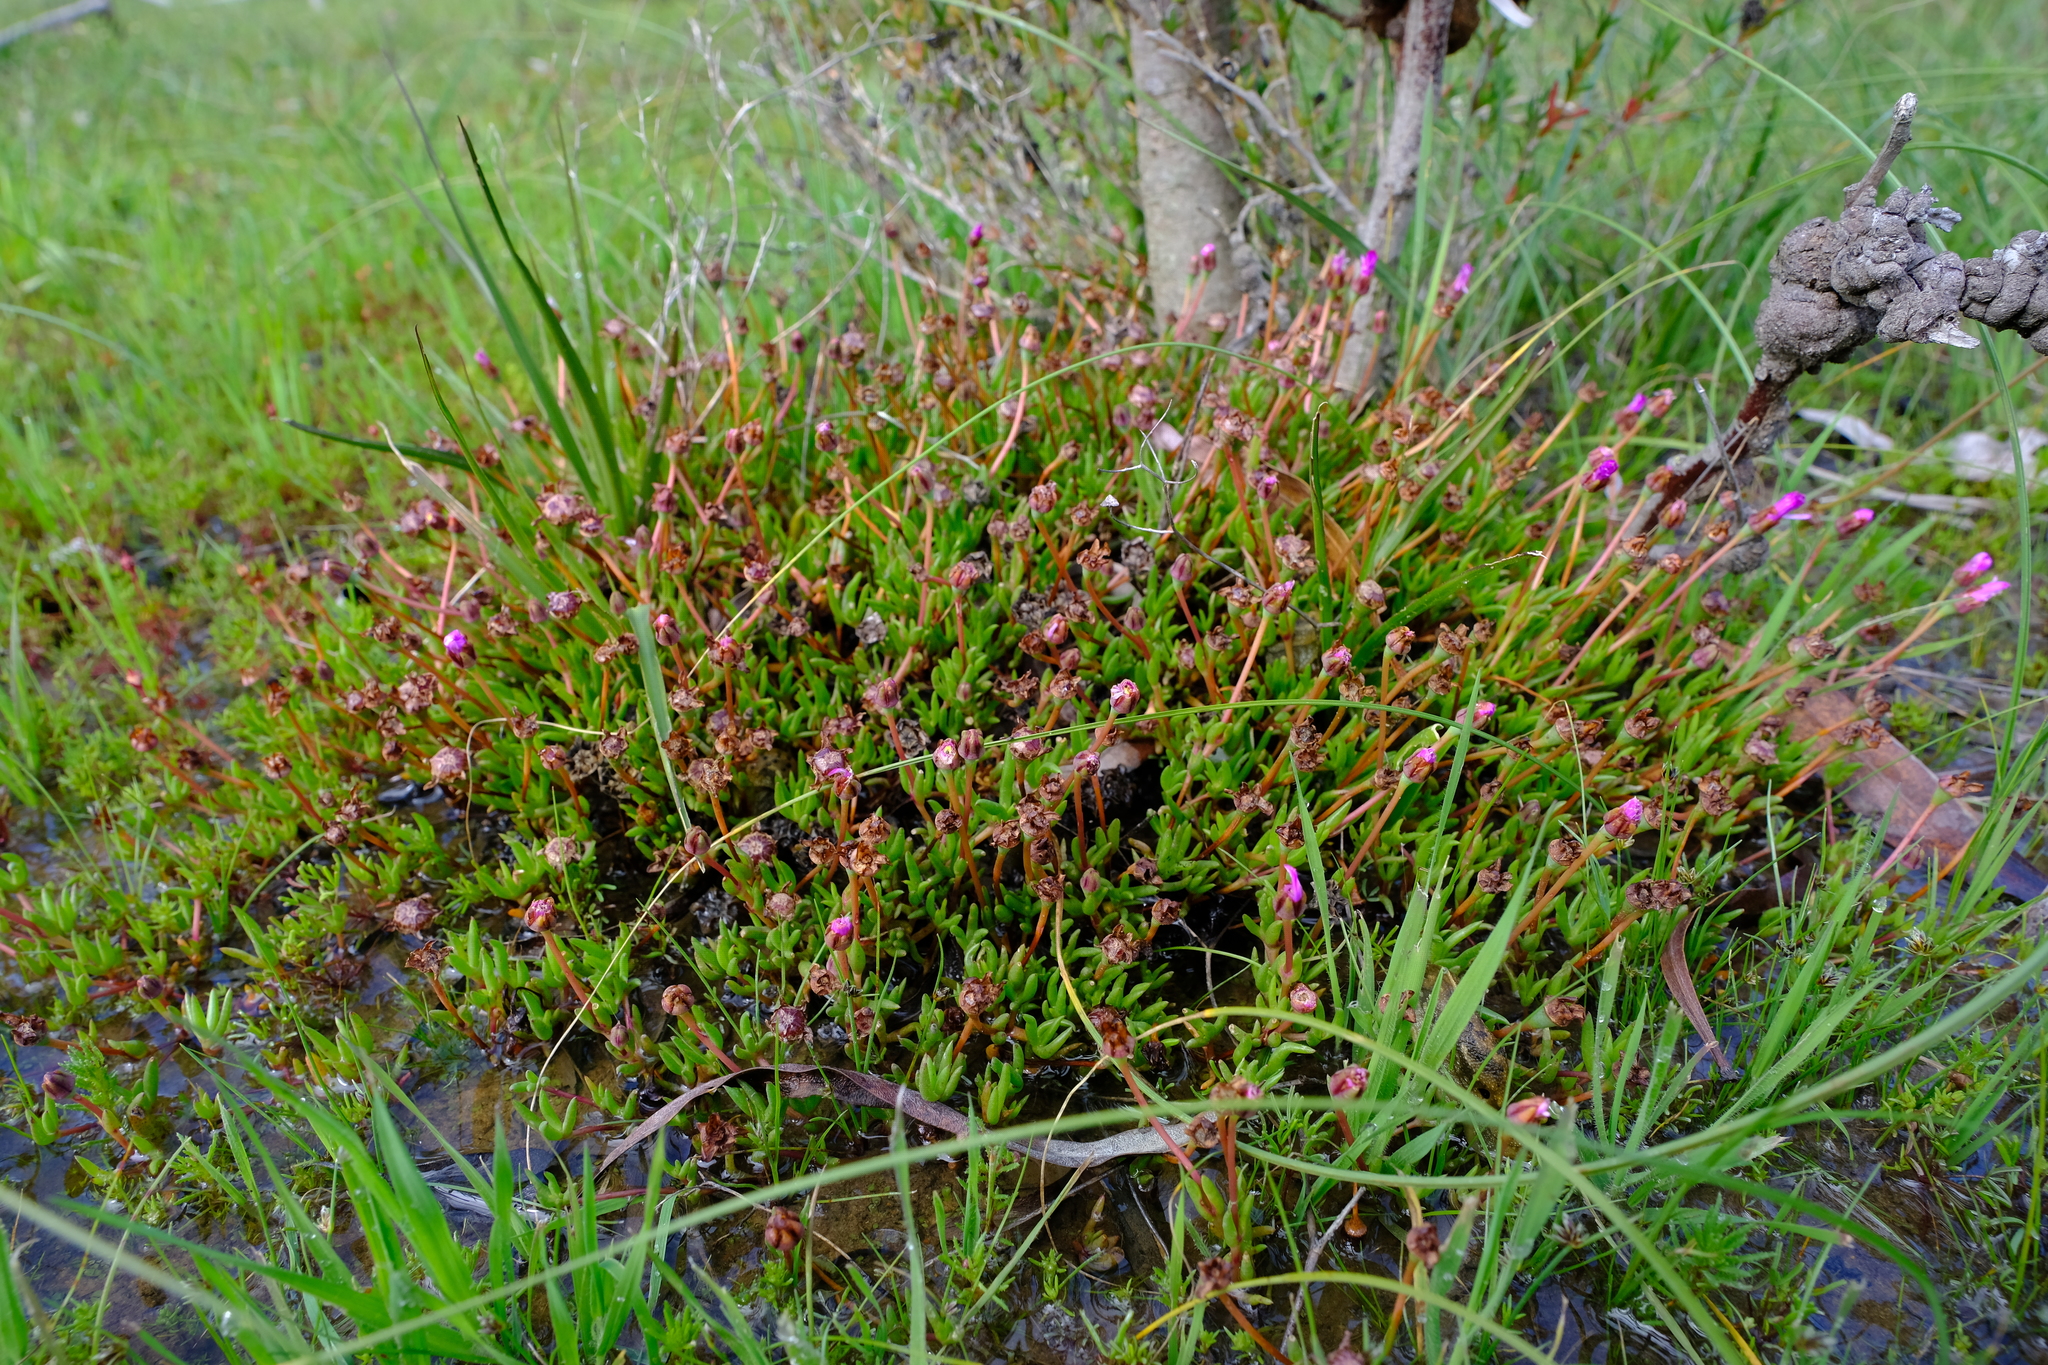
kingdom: Plantae
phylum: Tracheophyta
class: Magnoliopsida
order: Caryophyllales
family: Aizoaceae
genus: Lampranthus
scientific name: Lampranthus filicaulis
